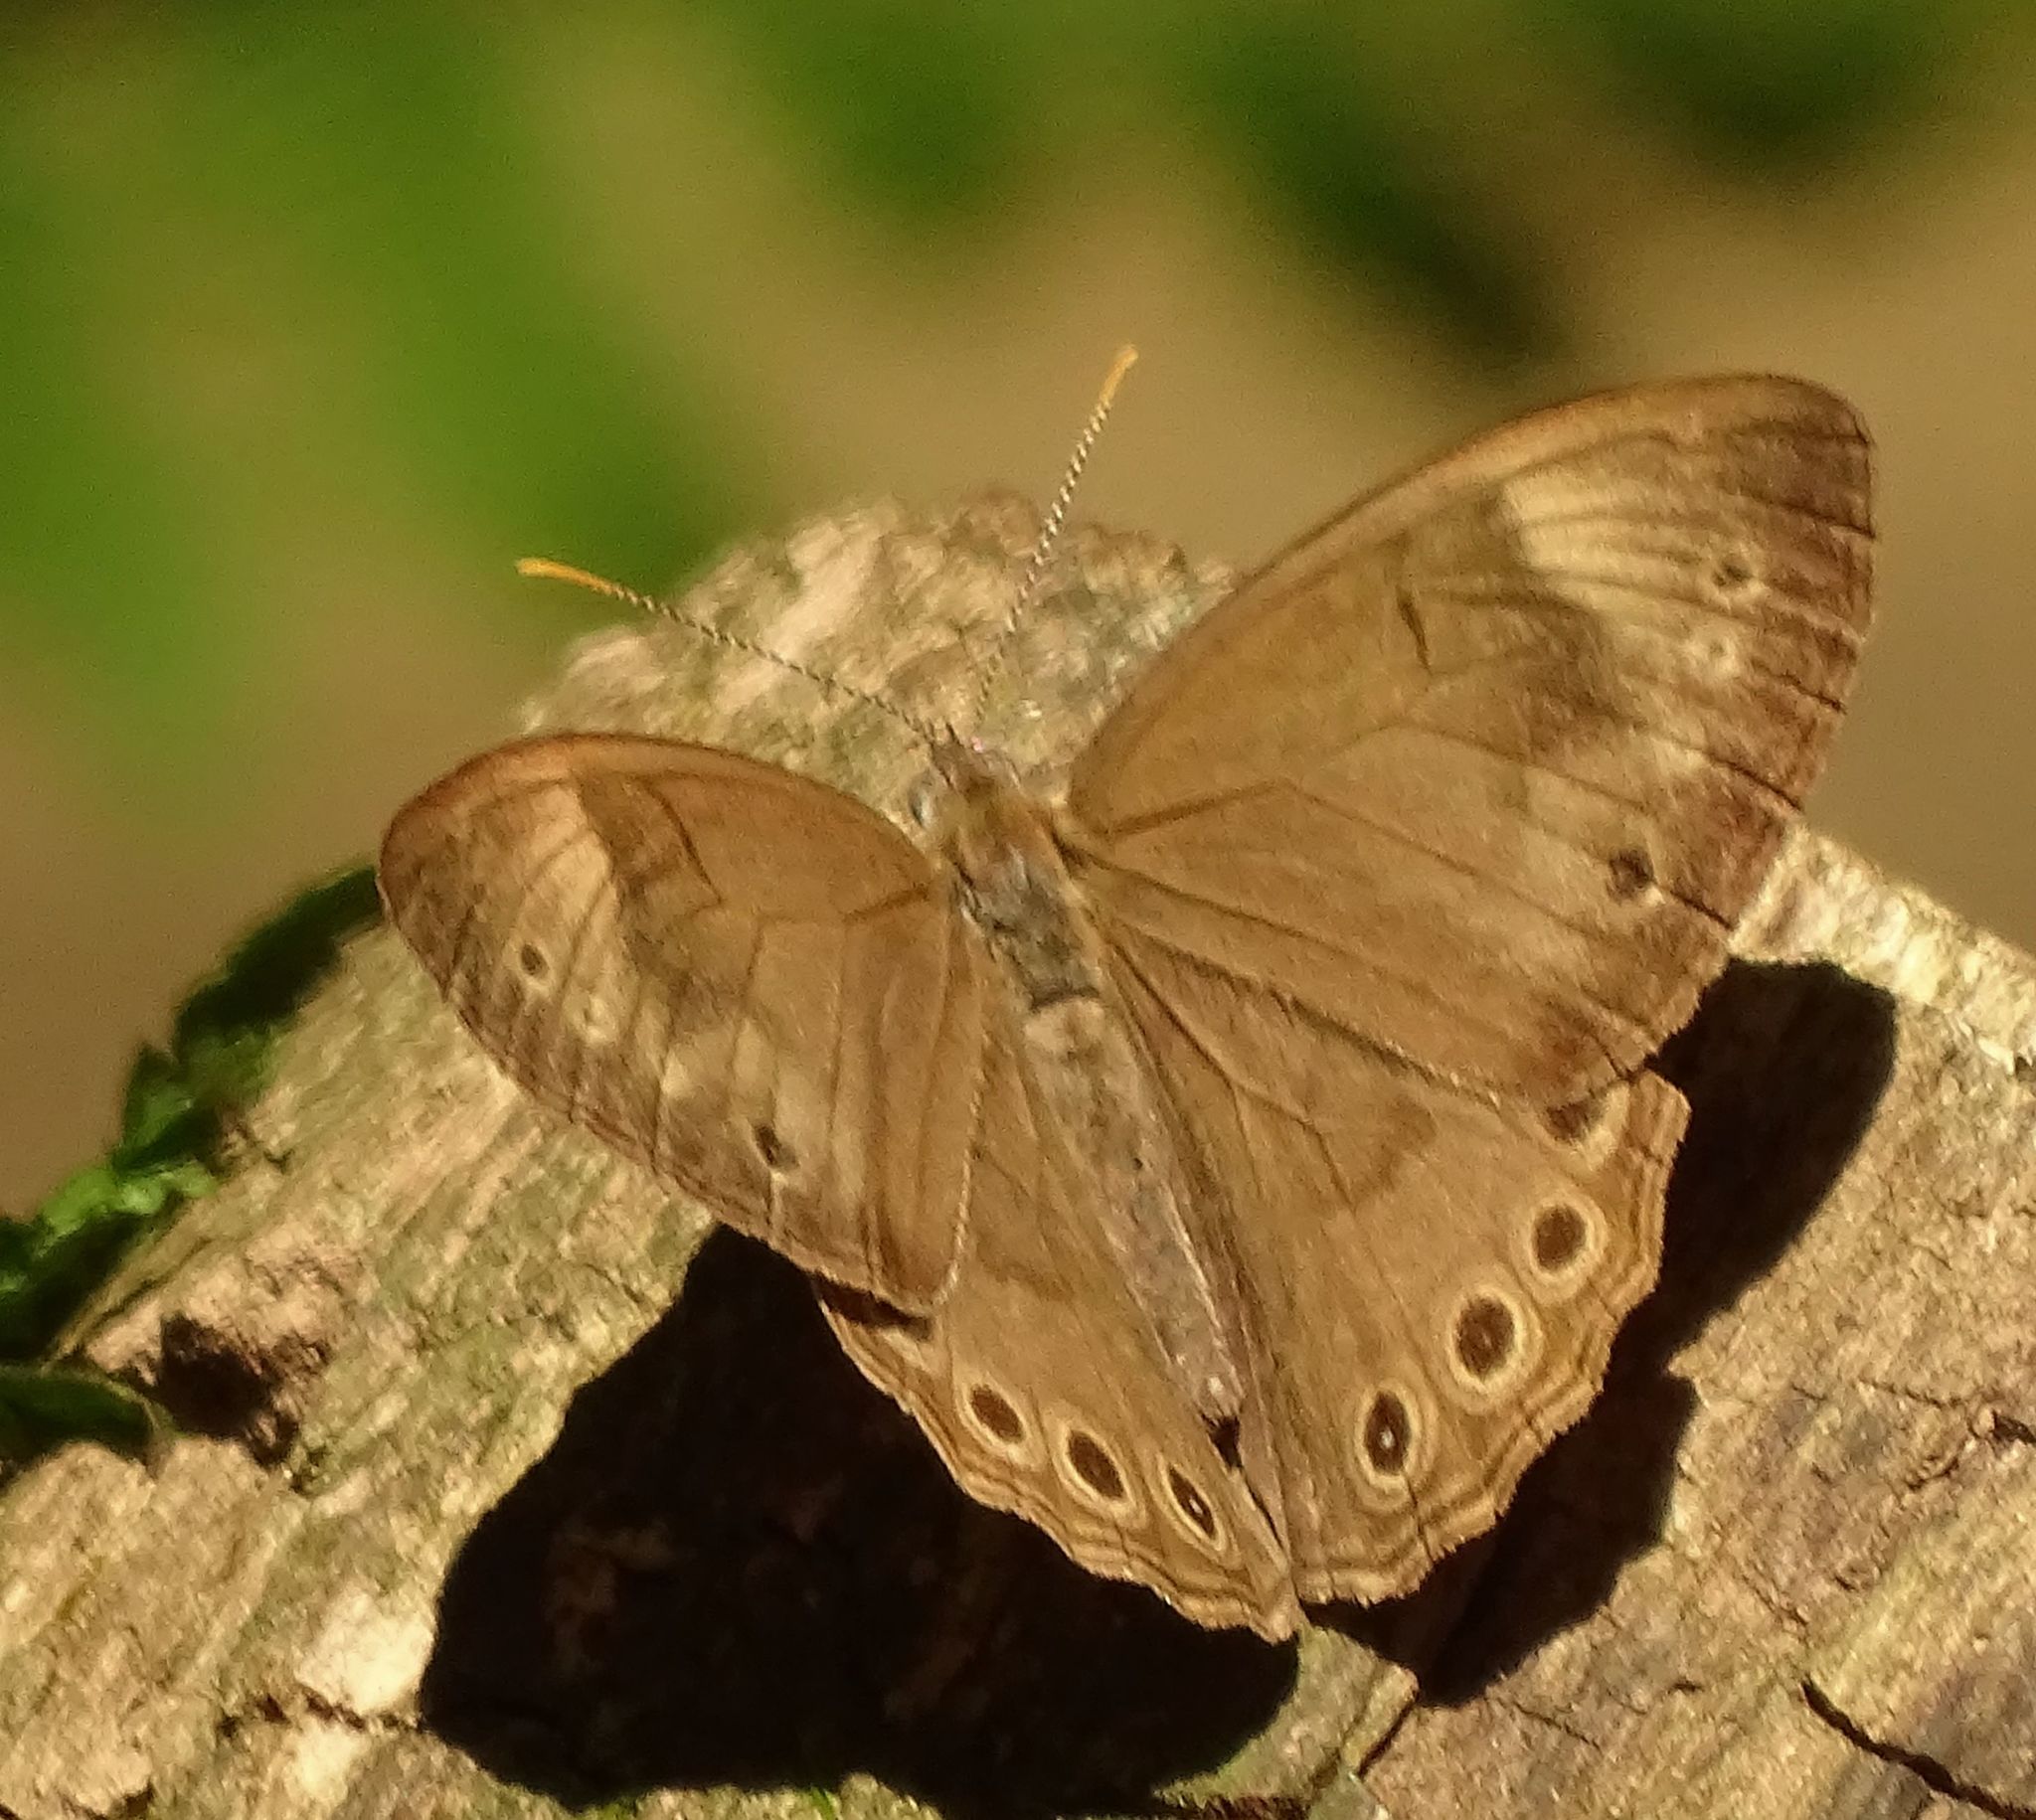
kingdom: Animalia
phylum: Arthropoda
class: Insecta
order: Lepidoptera
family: Nymphalidae
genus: Lethe
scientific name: Lethe eurydice
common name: Eyed brown
